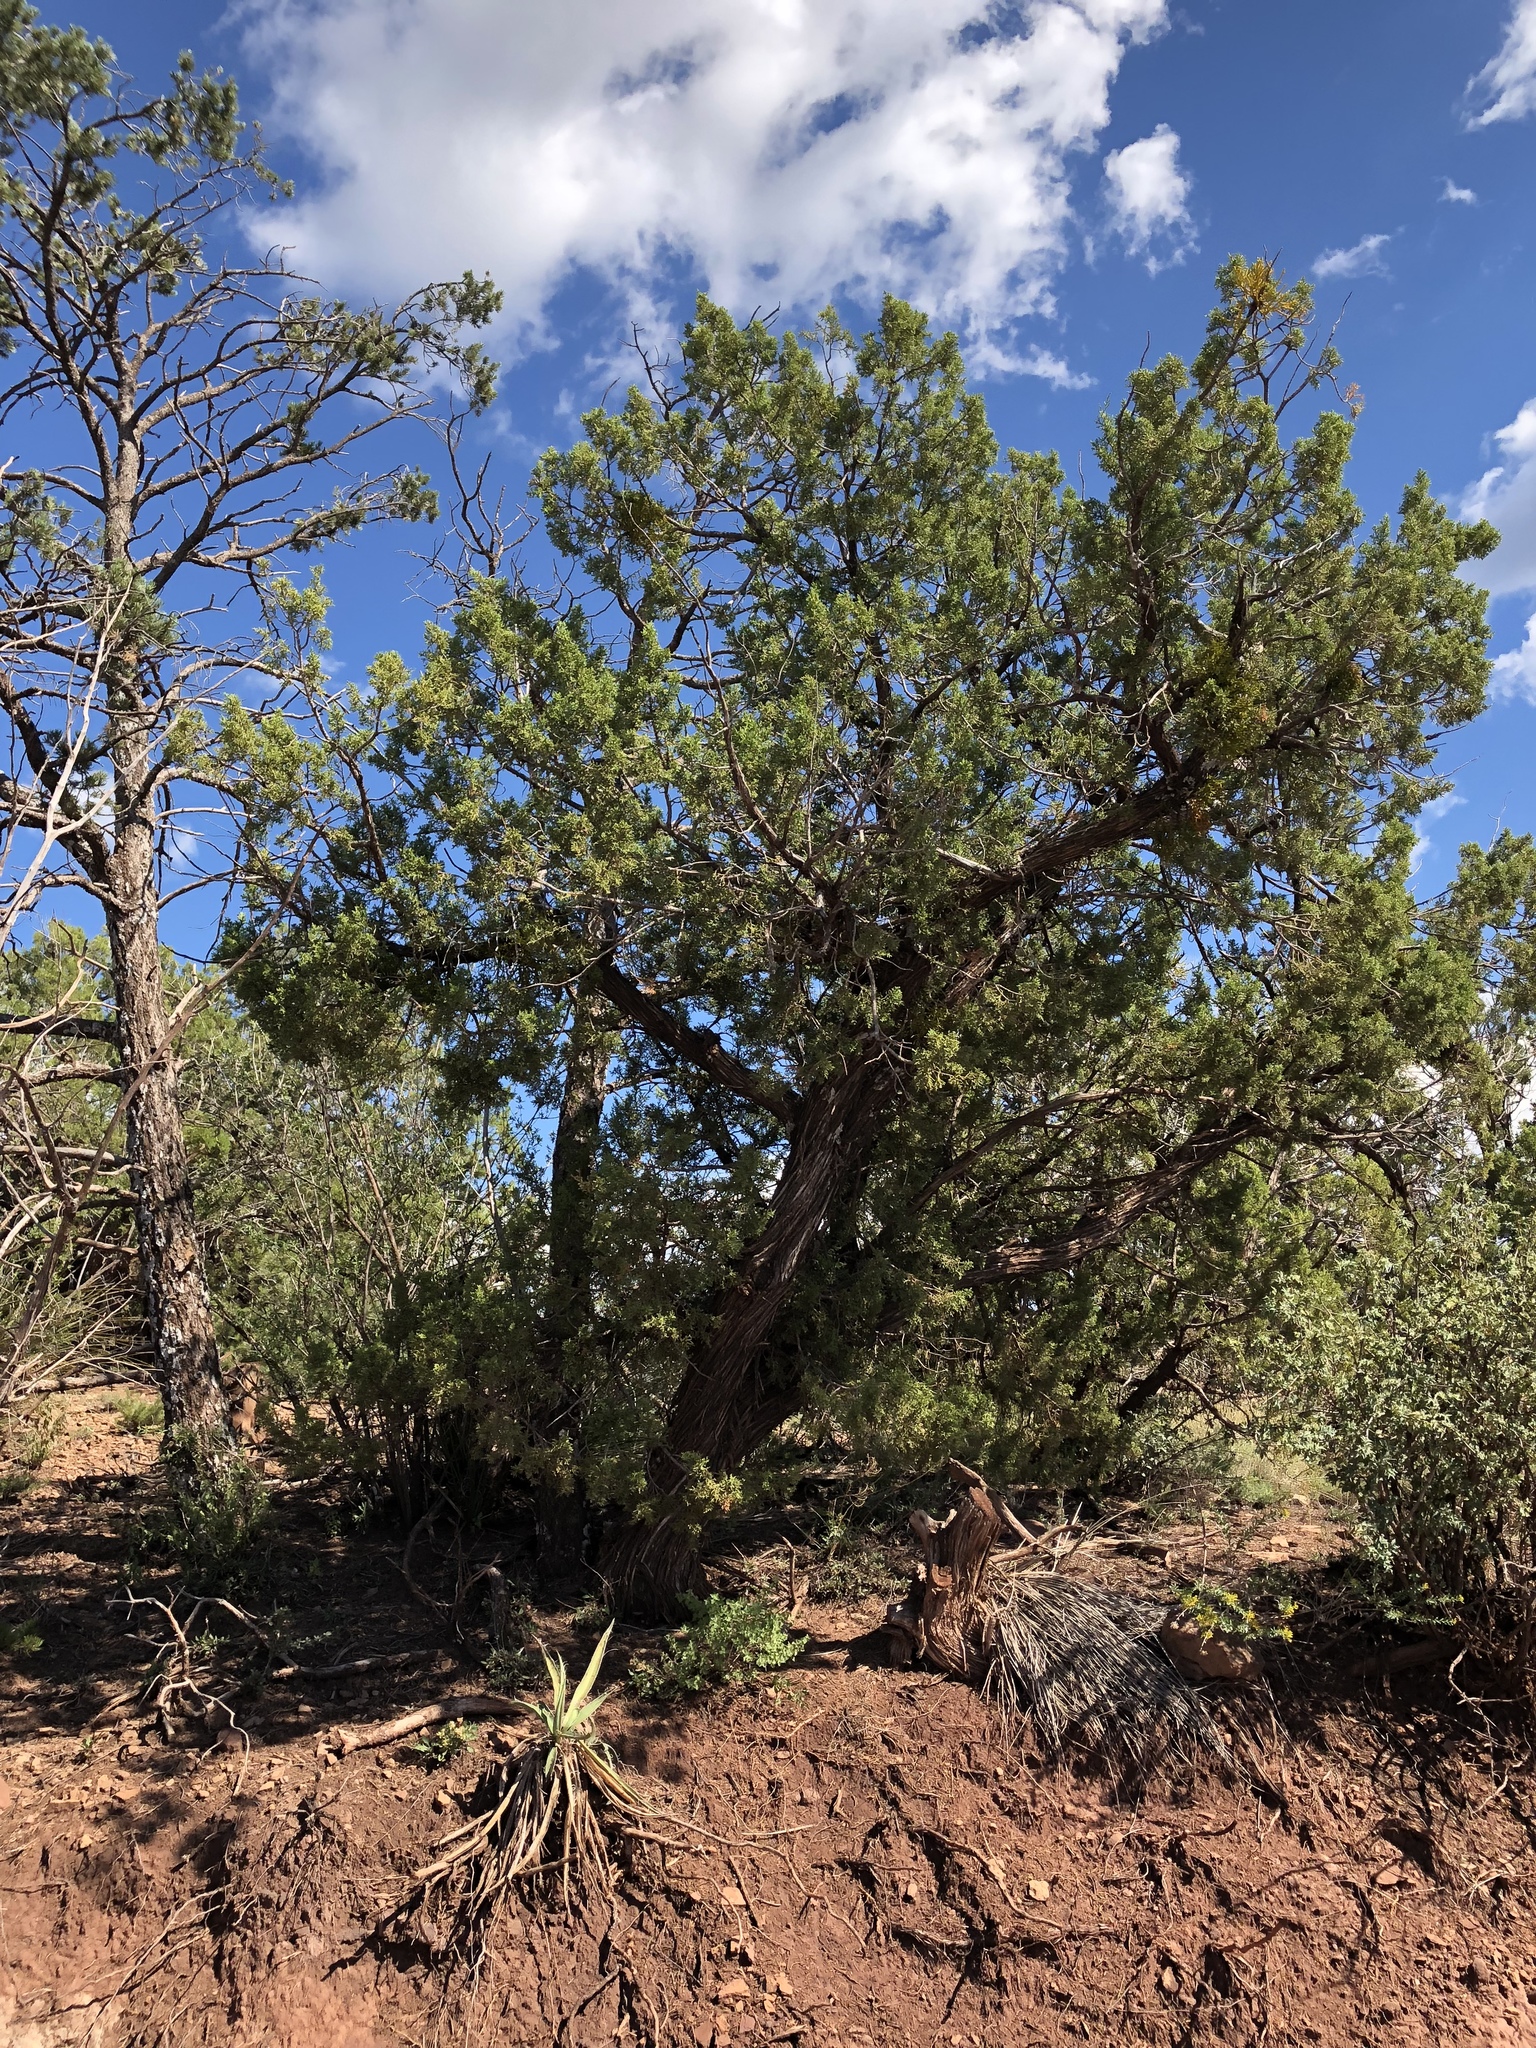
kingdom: Plantae
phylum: Tracheophyta
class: Pinopsida
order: Pinales
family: Pinaceae
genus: Pinus
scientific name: Pinus edulis
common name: Colorado pinyon
